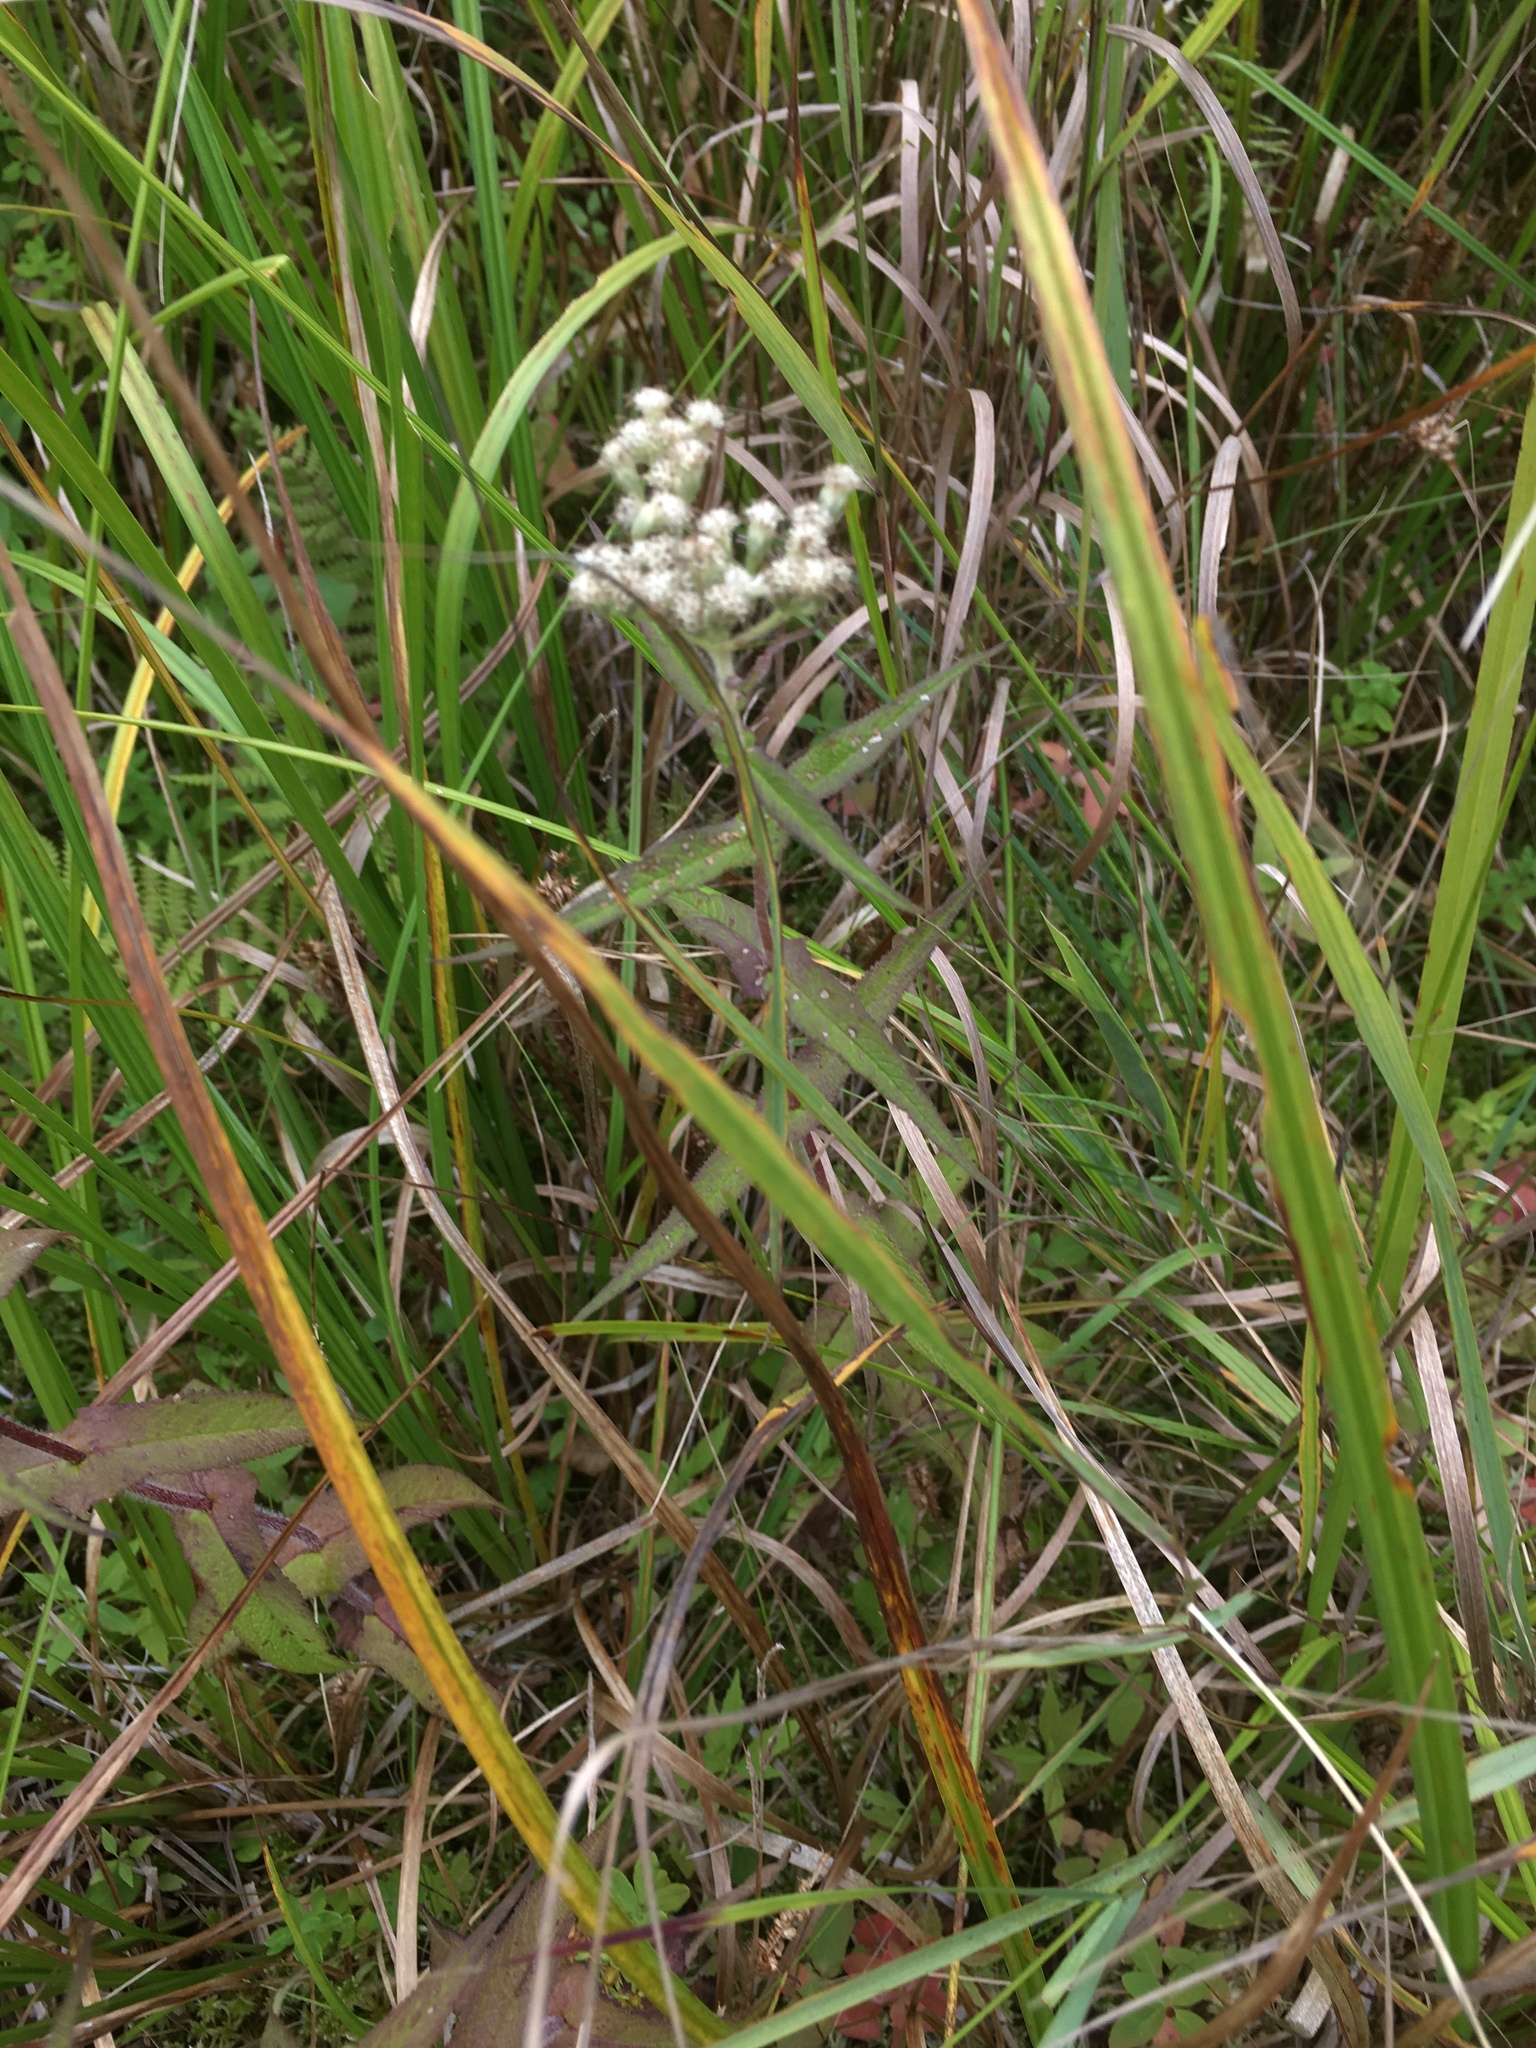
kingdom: Plantae
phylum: Tracheophyta
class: Magnoliopsida
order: Asterales
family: Asteraceae
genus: Eupatorium
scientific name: Eupatorium perfoliatum
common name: Boneset
